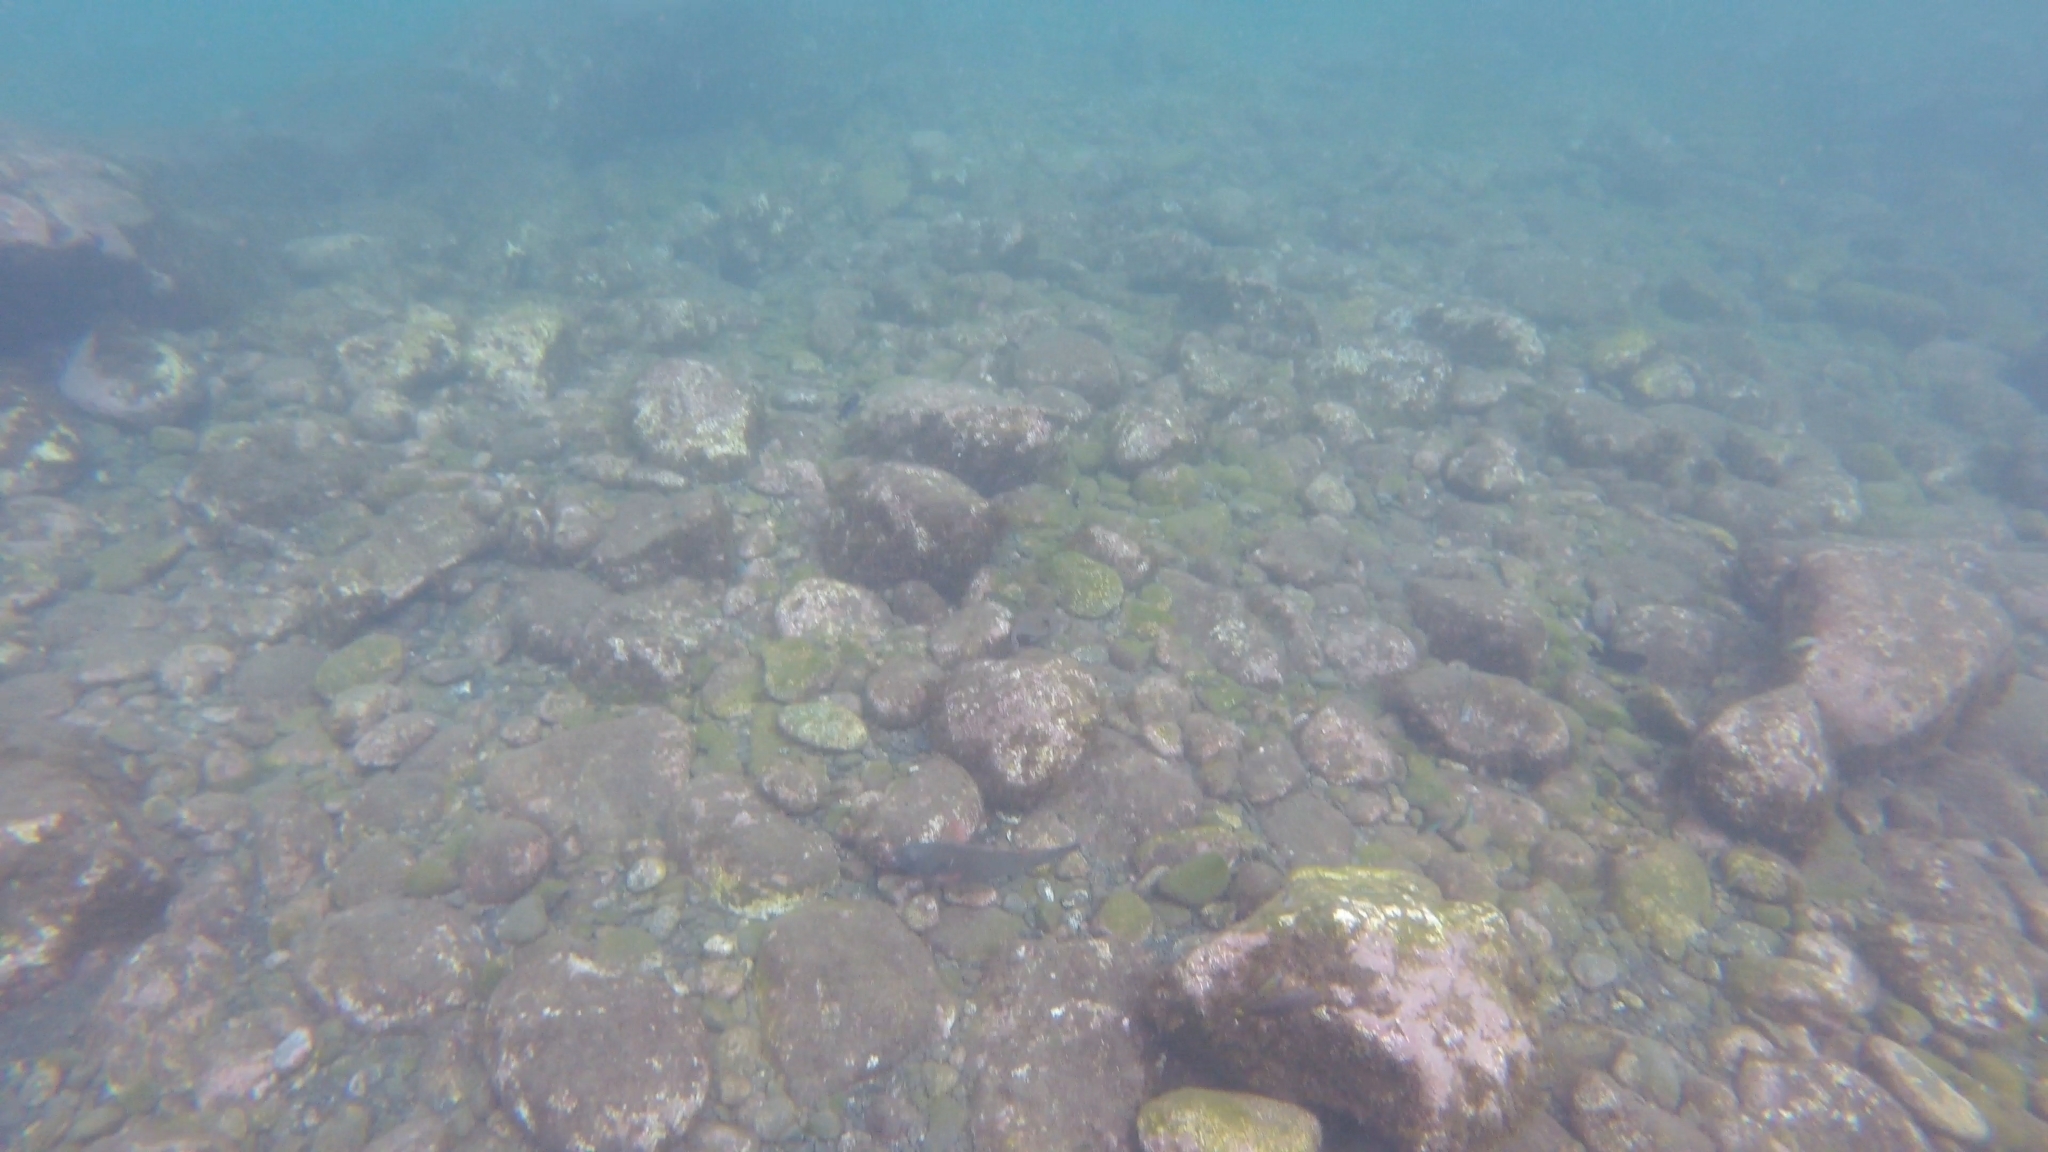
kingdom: Animalia
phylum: Chordata
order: Perciformes
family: Scaridae
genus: Sparisoma
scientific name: Sparisoma cretense
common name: Parrotfish
